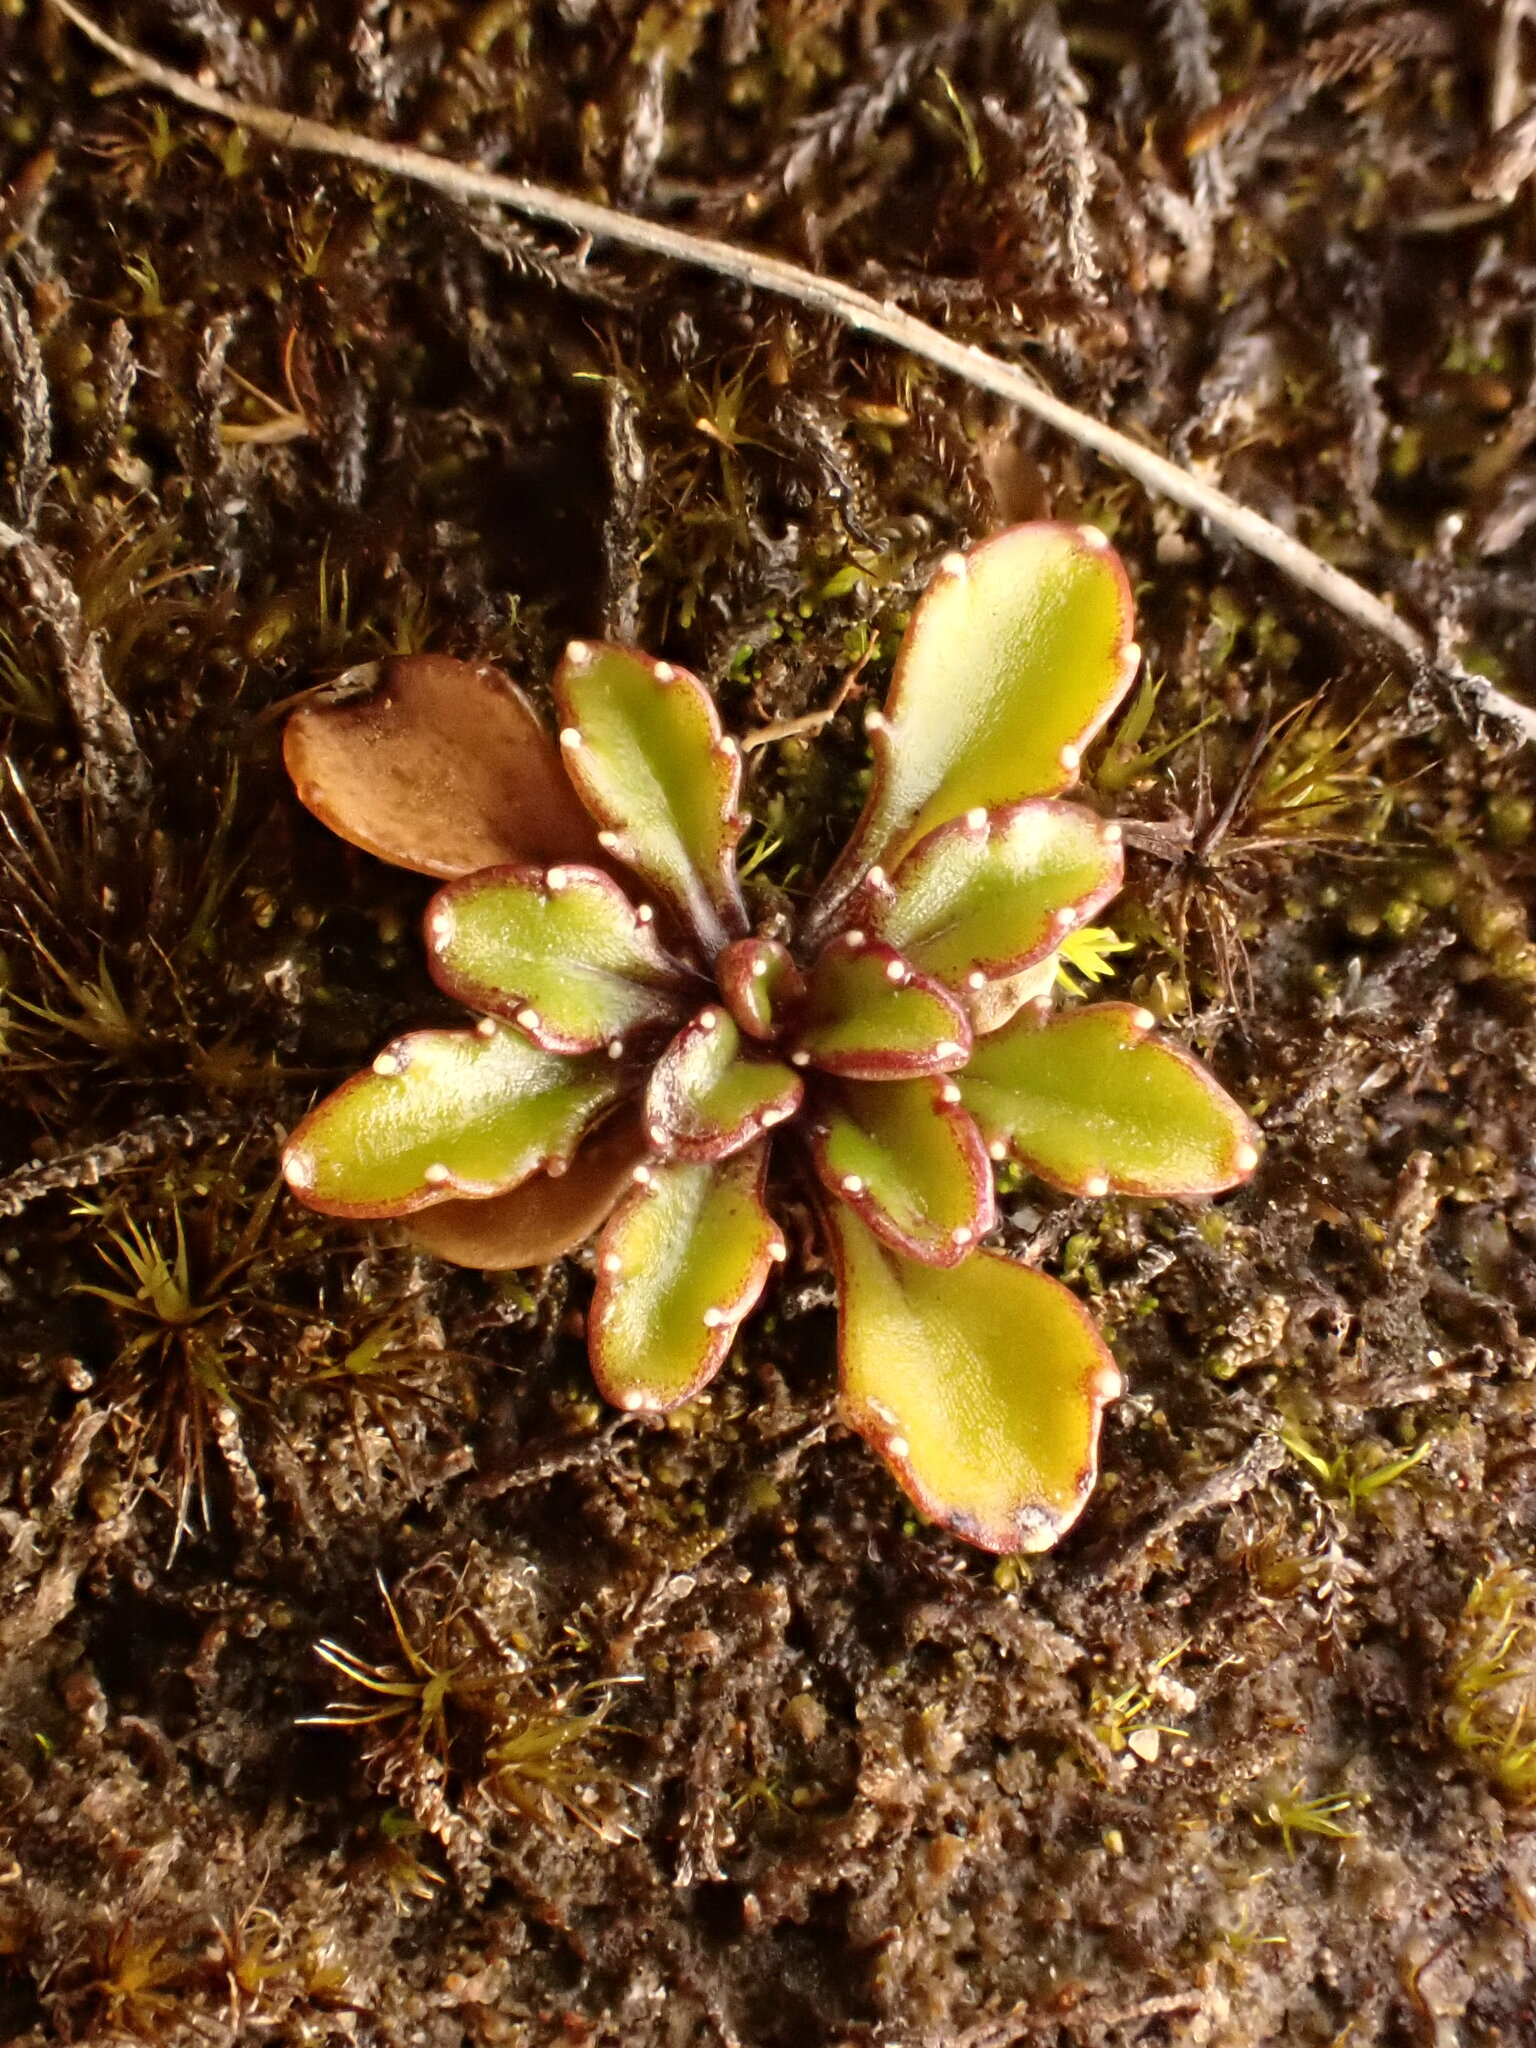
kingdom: Plantae
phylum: Tracheophyta
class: Magnoliopsida
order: Asterales
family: Campanulaceae
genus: Wahlenbergia
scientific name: Wahlenbergia pygmaea
